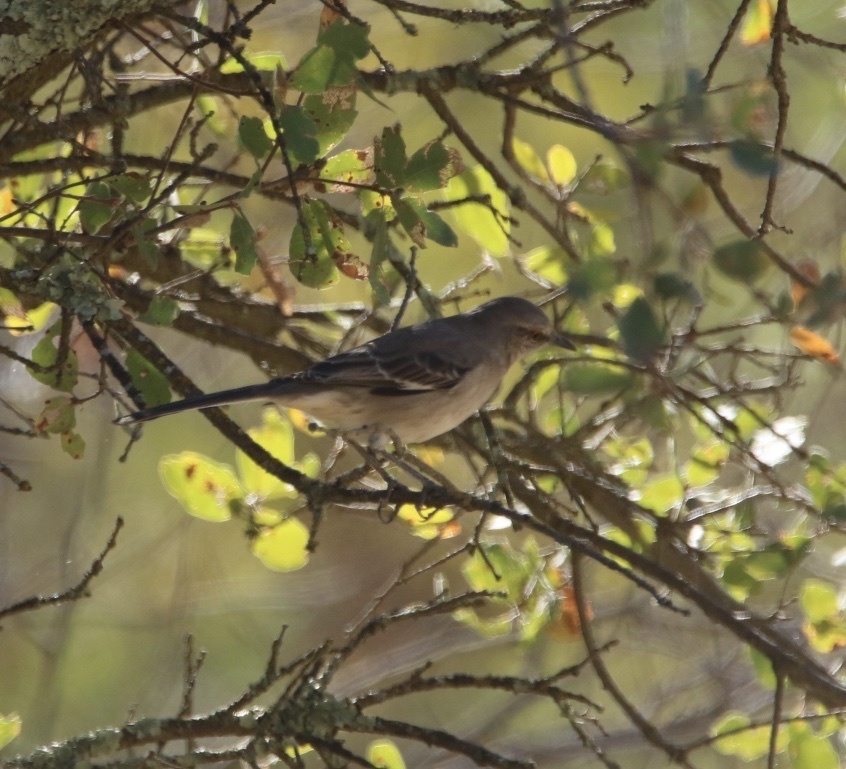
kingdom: Animalia
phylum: Chordata
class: Aves
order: Passeriformes
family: Mimidae
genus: Mimus
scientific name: Mimus polyglottos
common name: Northern mockingbird
